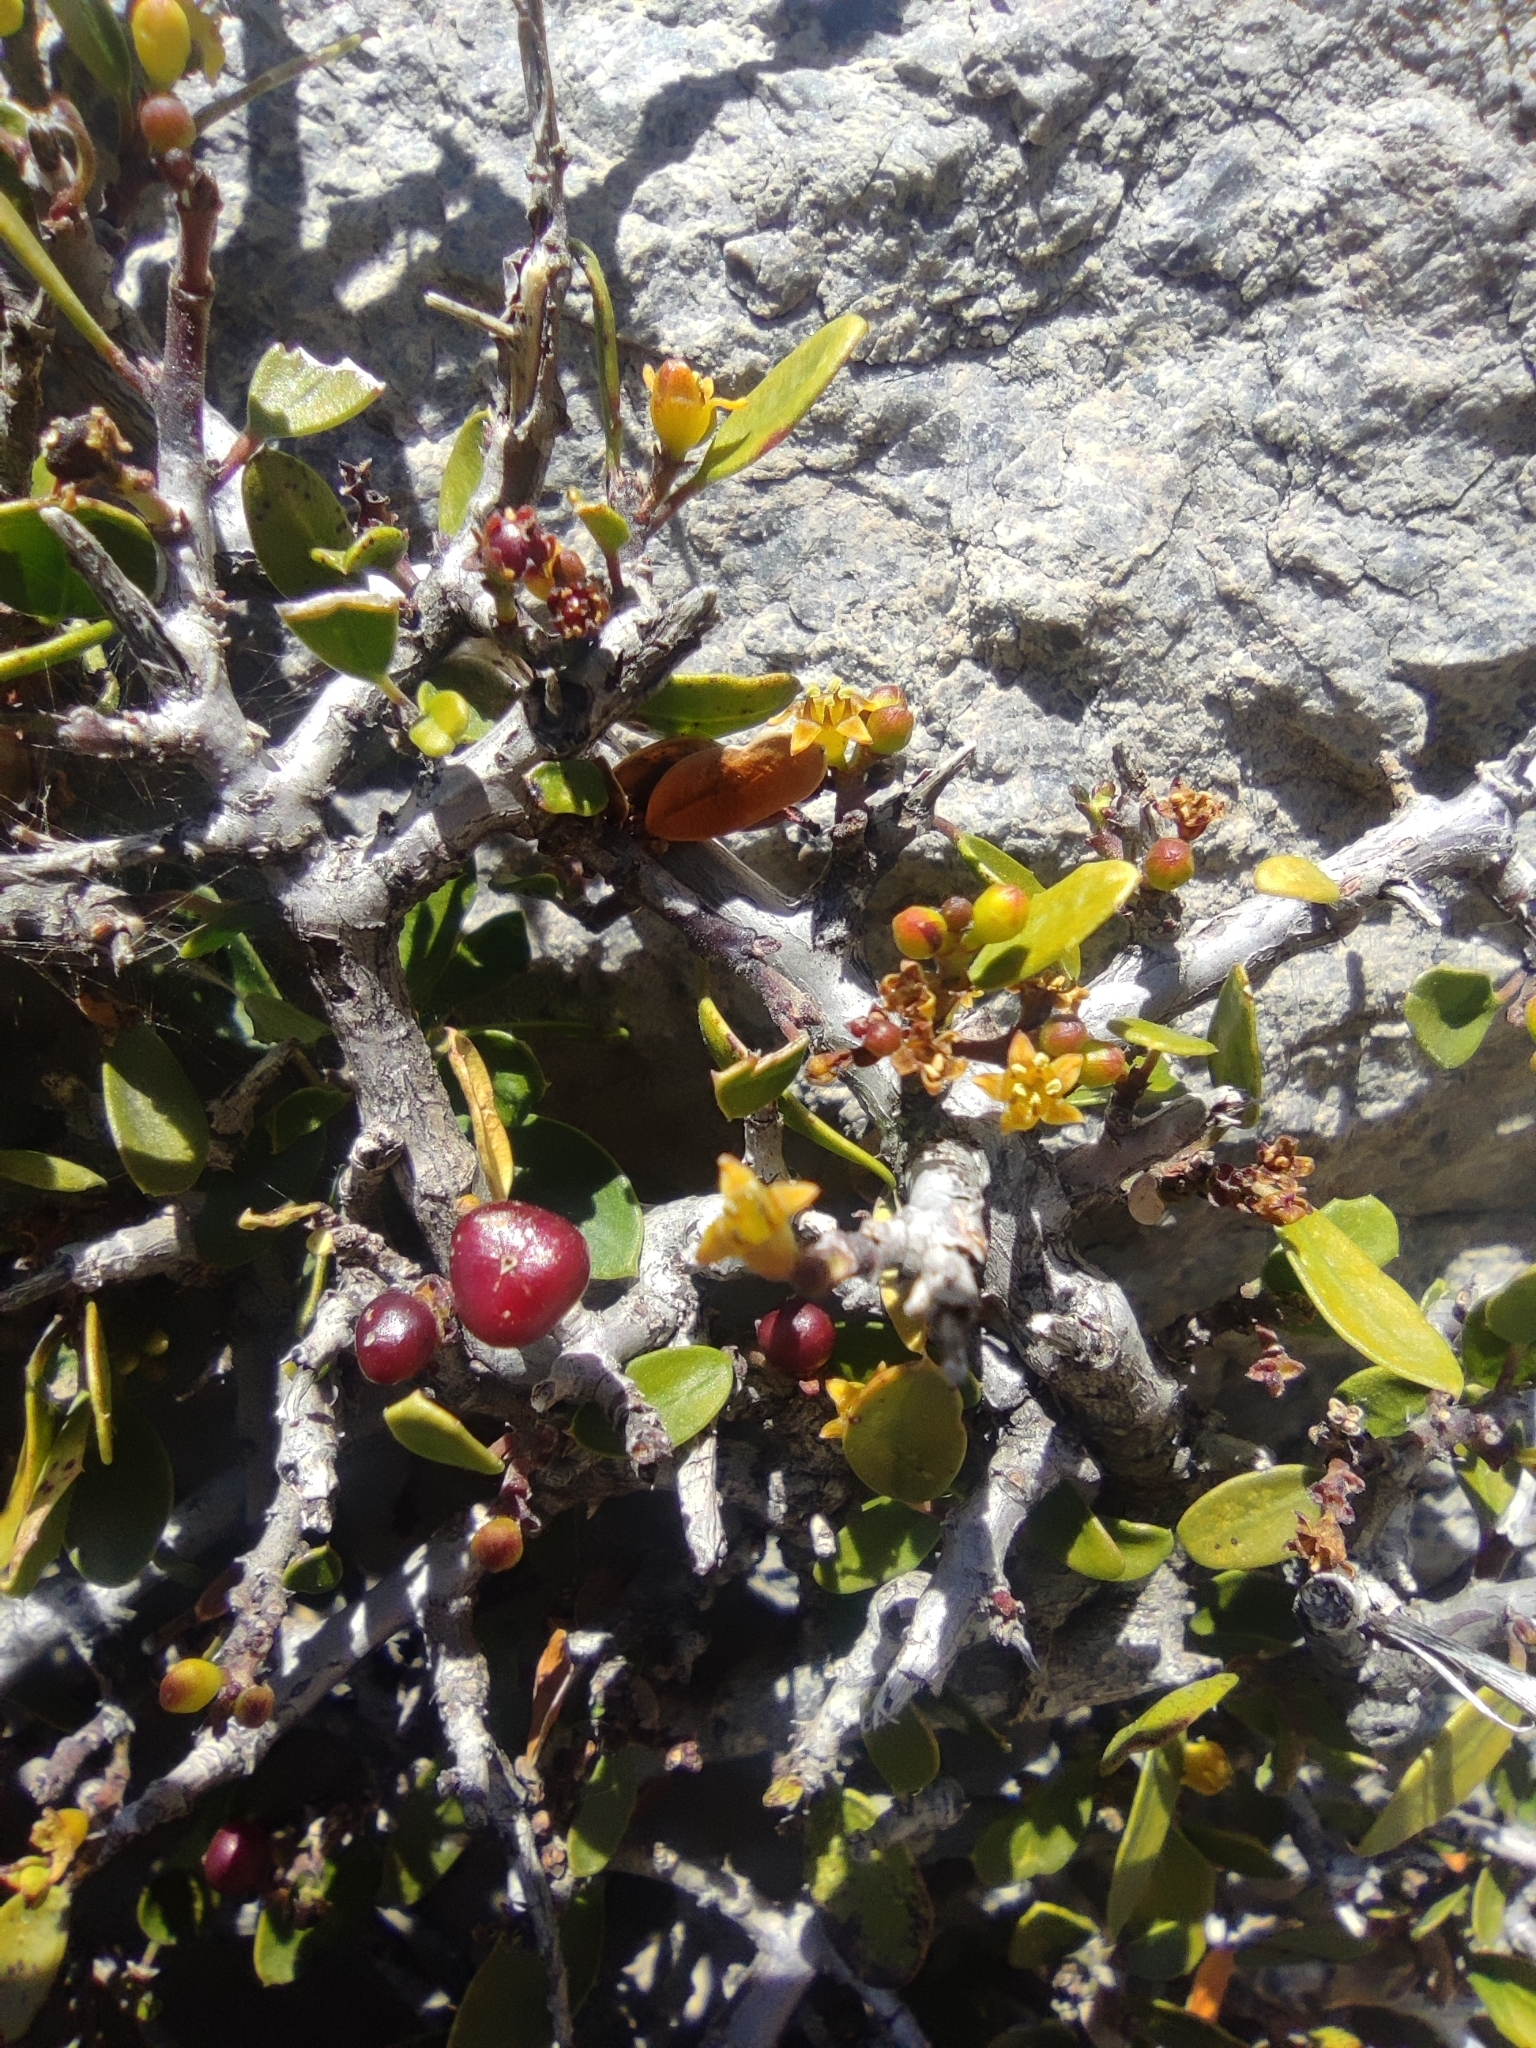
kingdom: Plantae
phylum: Tracheophyta
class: Magnoliopsida
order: Rosales
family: Rhamnaceae
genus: Rhamnus
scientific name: Rhamnus saxatilis
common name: Rock buckthorn
